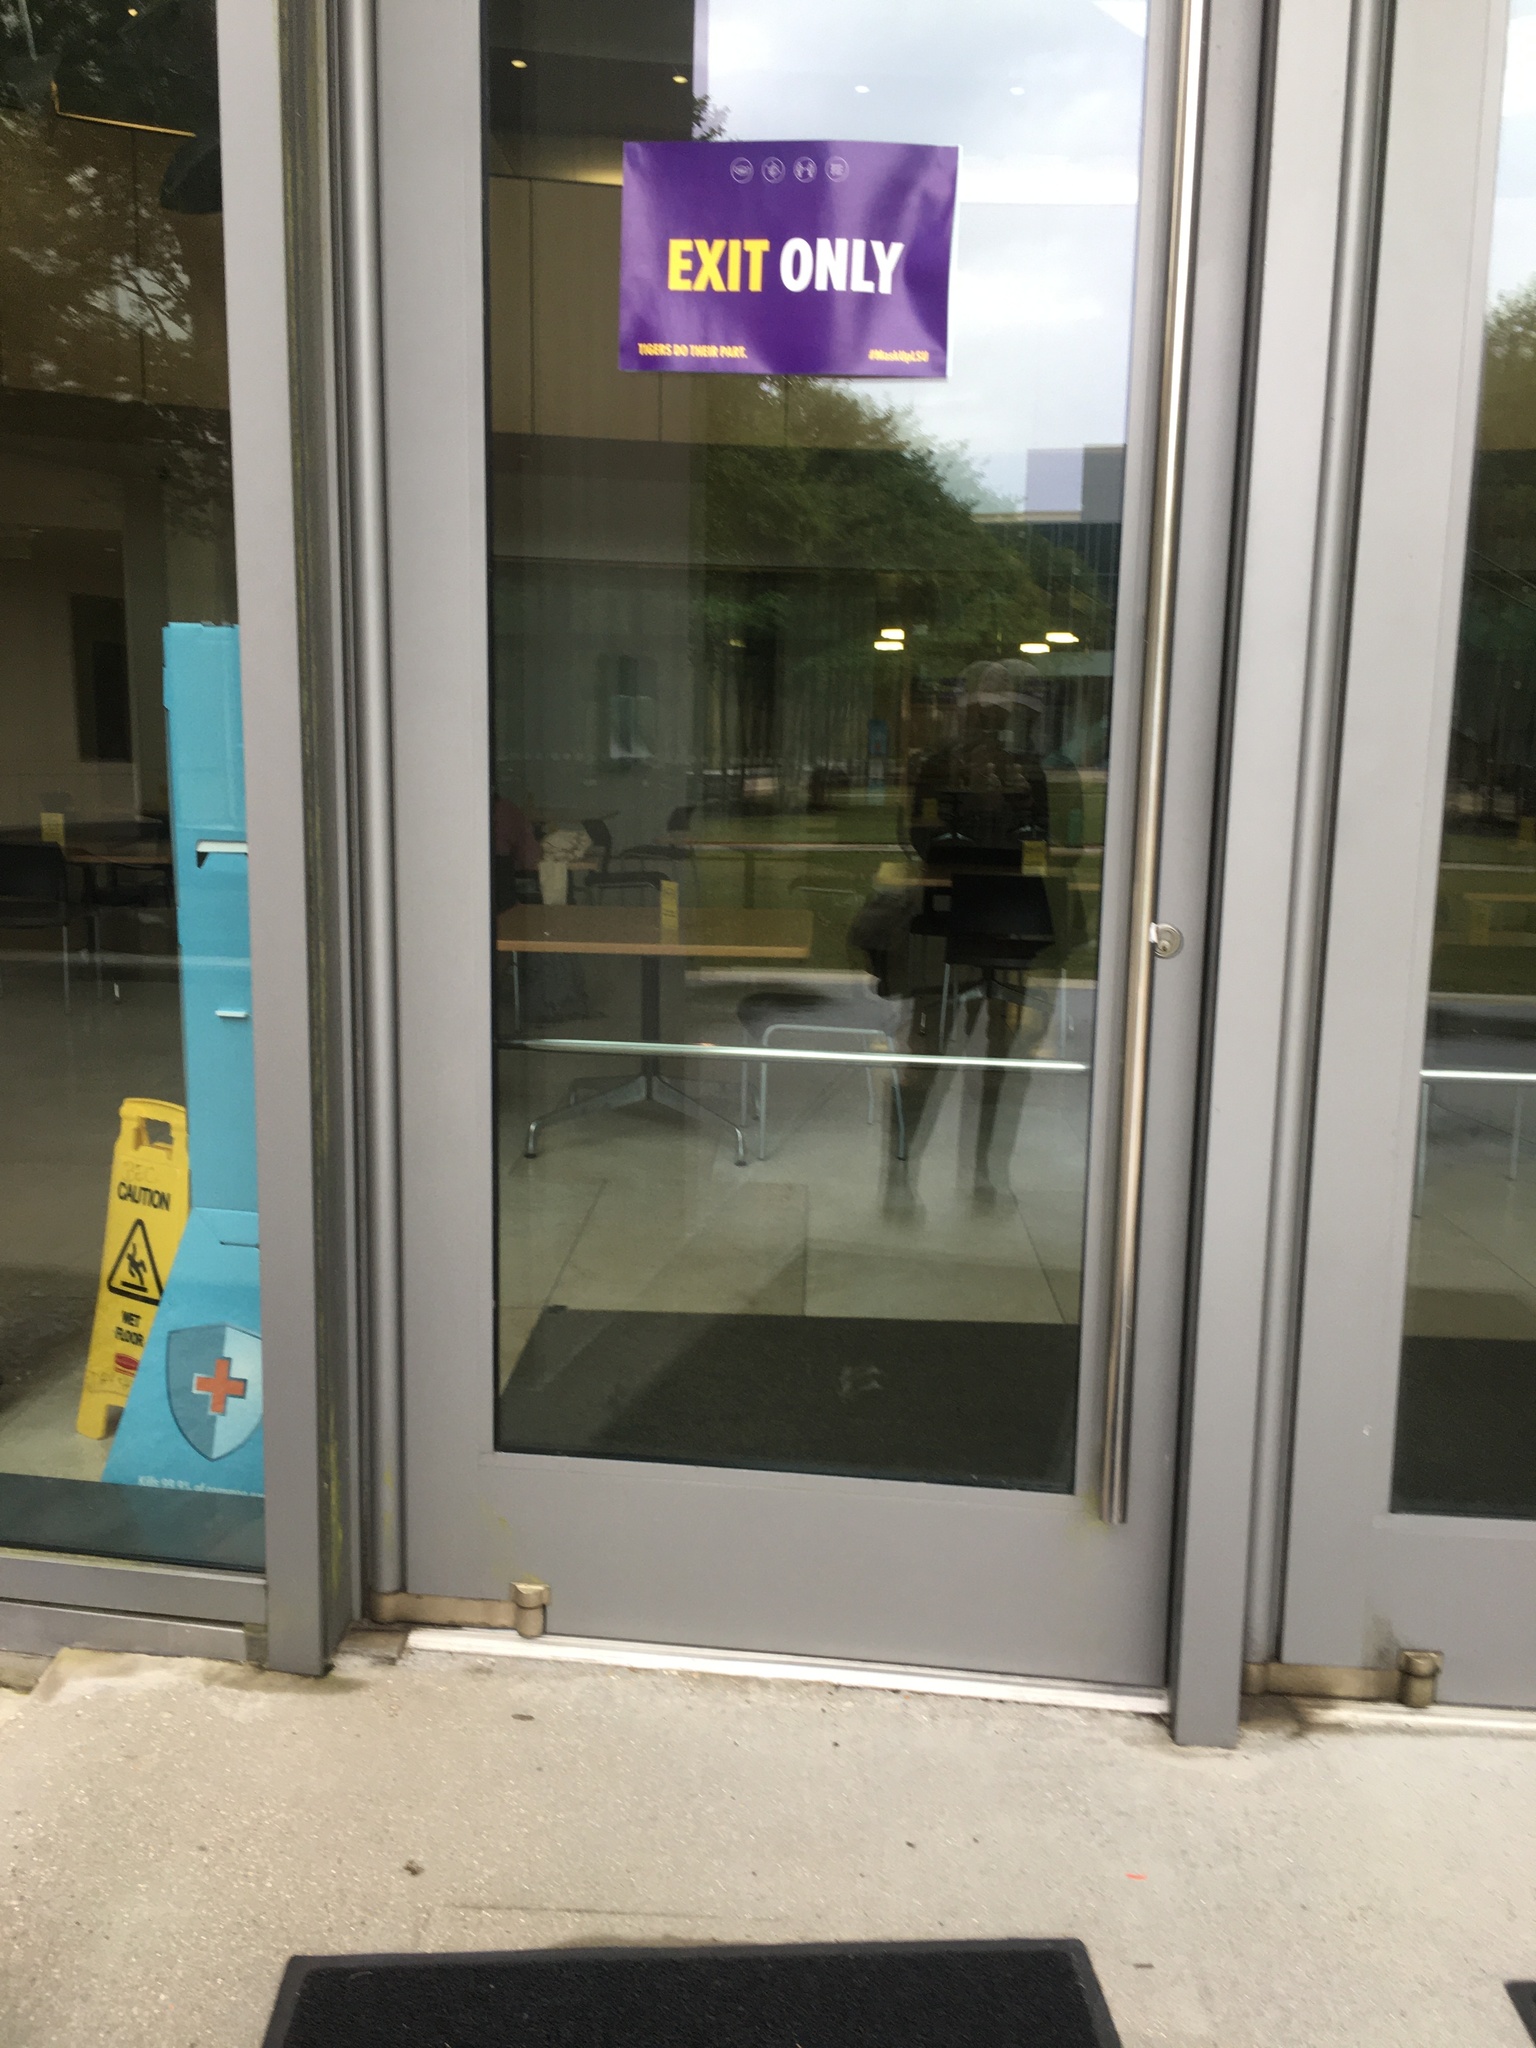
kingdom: Animalia
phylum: Chordata
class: Aves
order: Passeriformes
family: Turdidae
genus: Catharus
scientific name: Catharus fuscescens
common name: Veery
